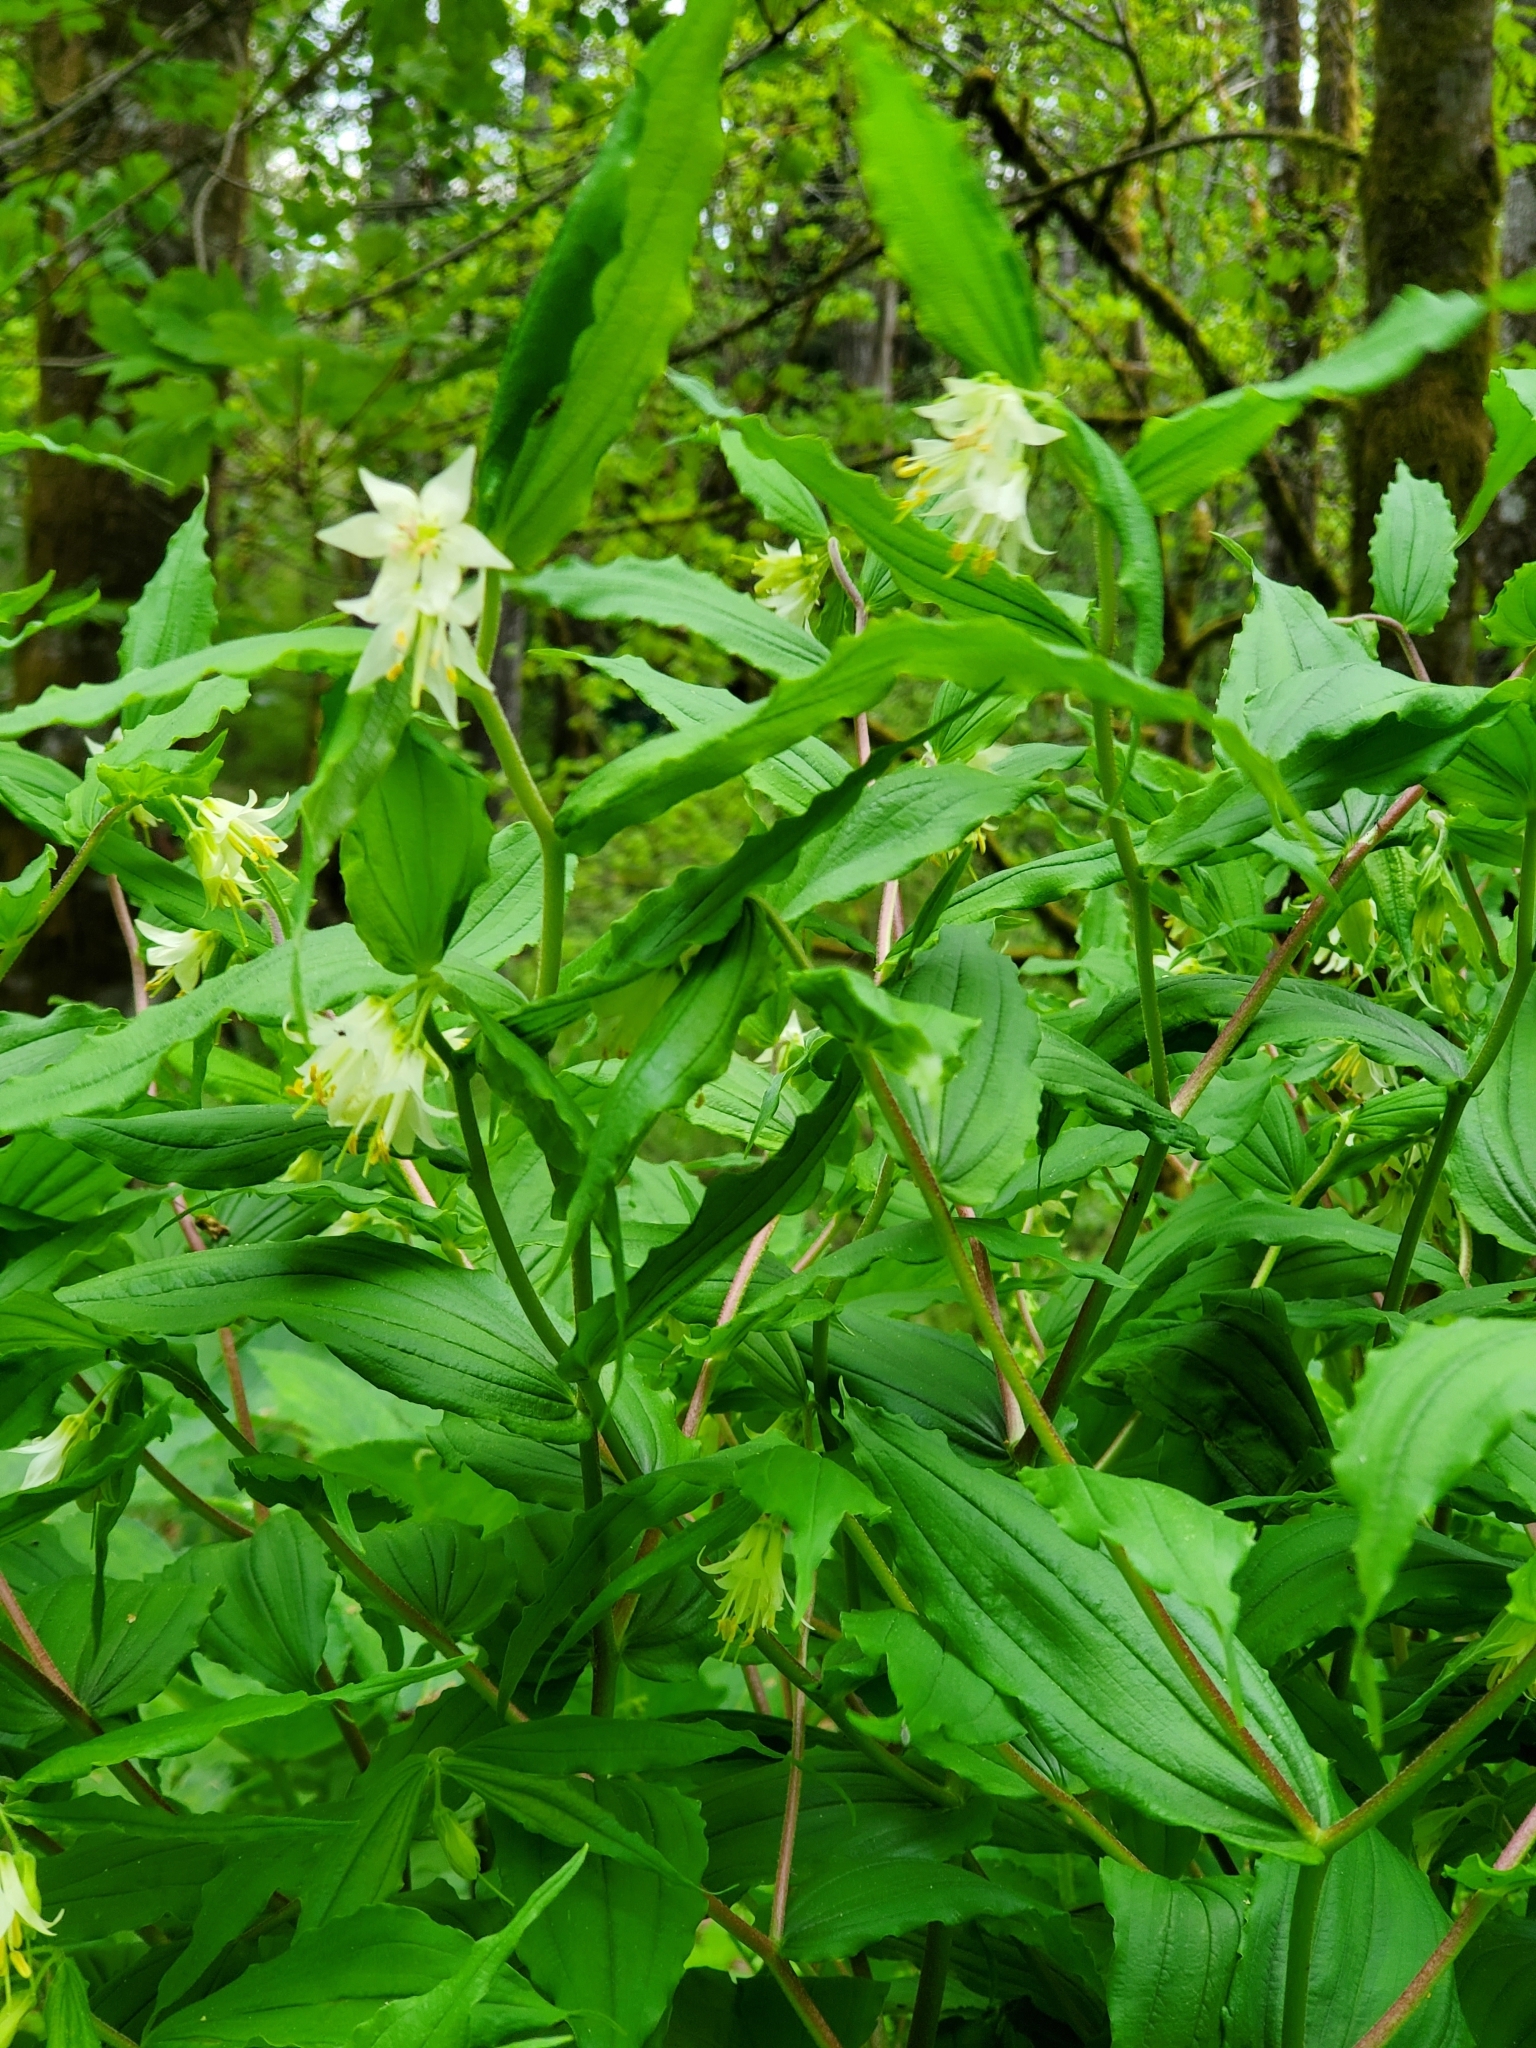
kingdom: Plantae
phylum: Tracheophyta
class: Liliopsida
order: Liliales
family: Liliaceae
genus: Prosartes
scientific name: Prosartes hookeri
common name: Fairy-bells
